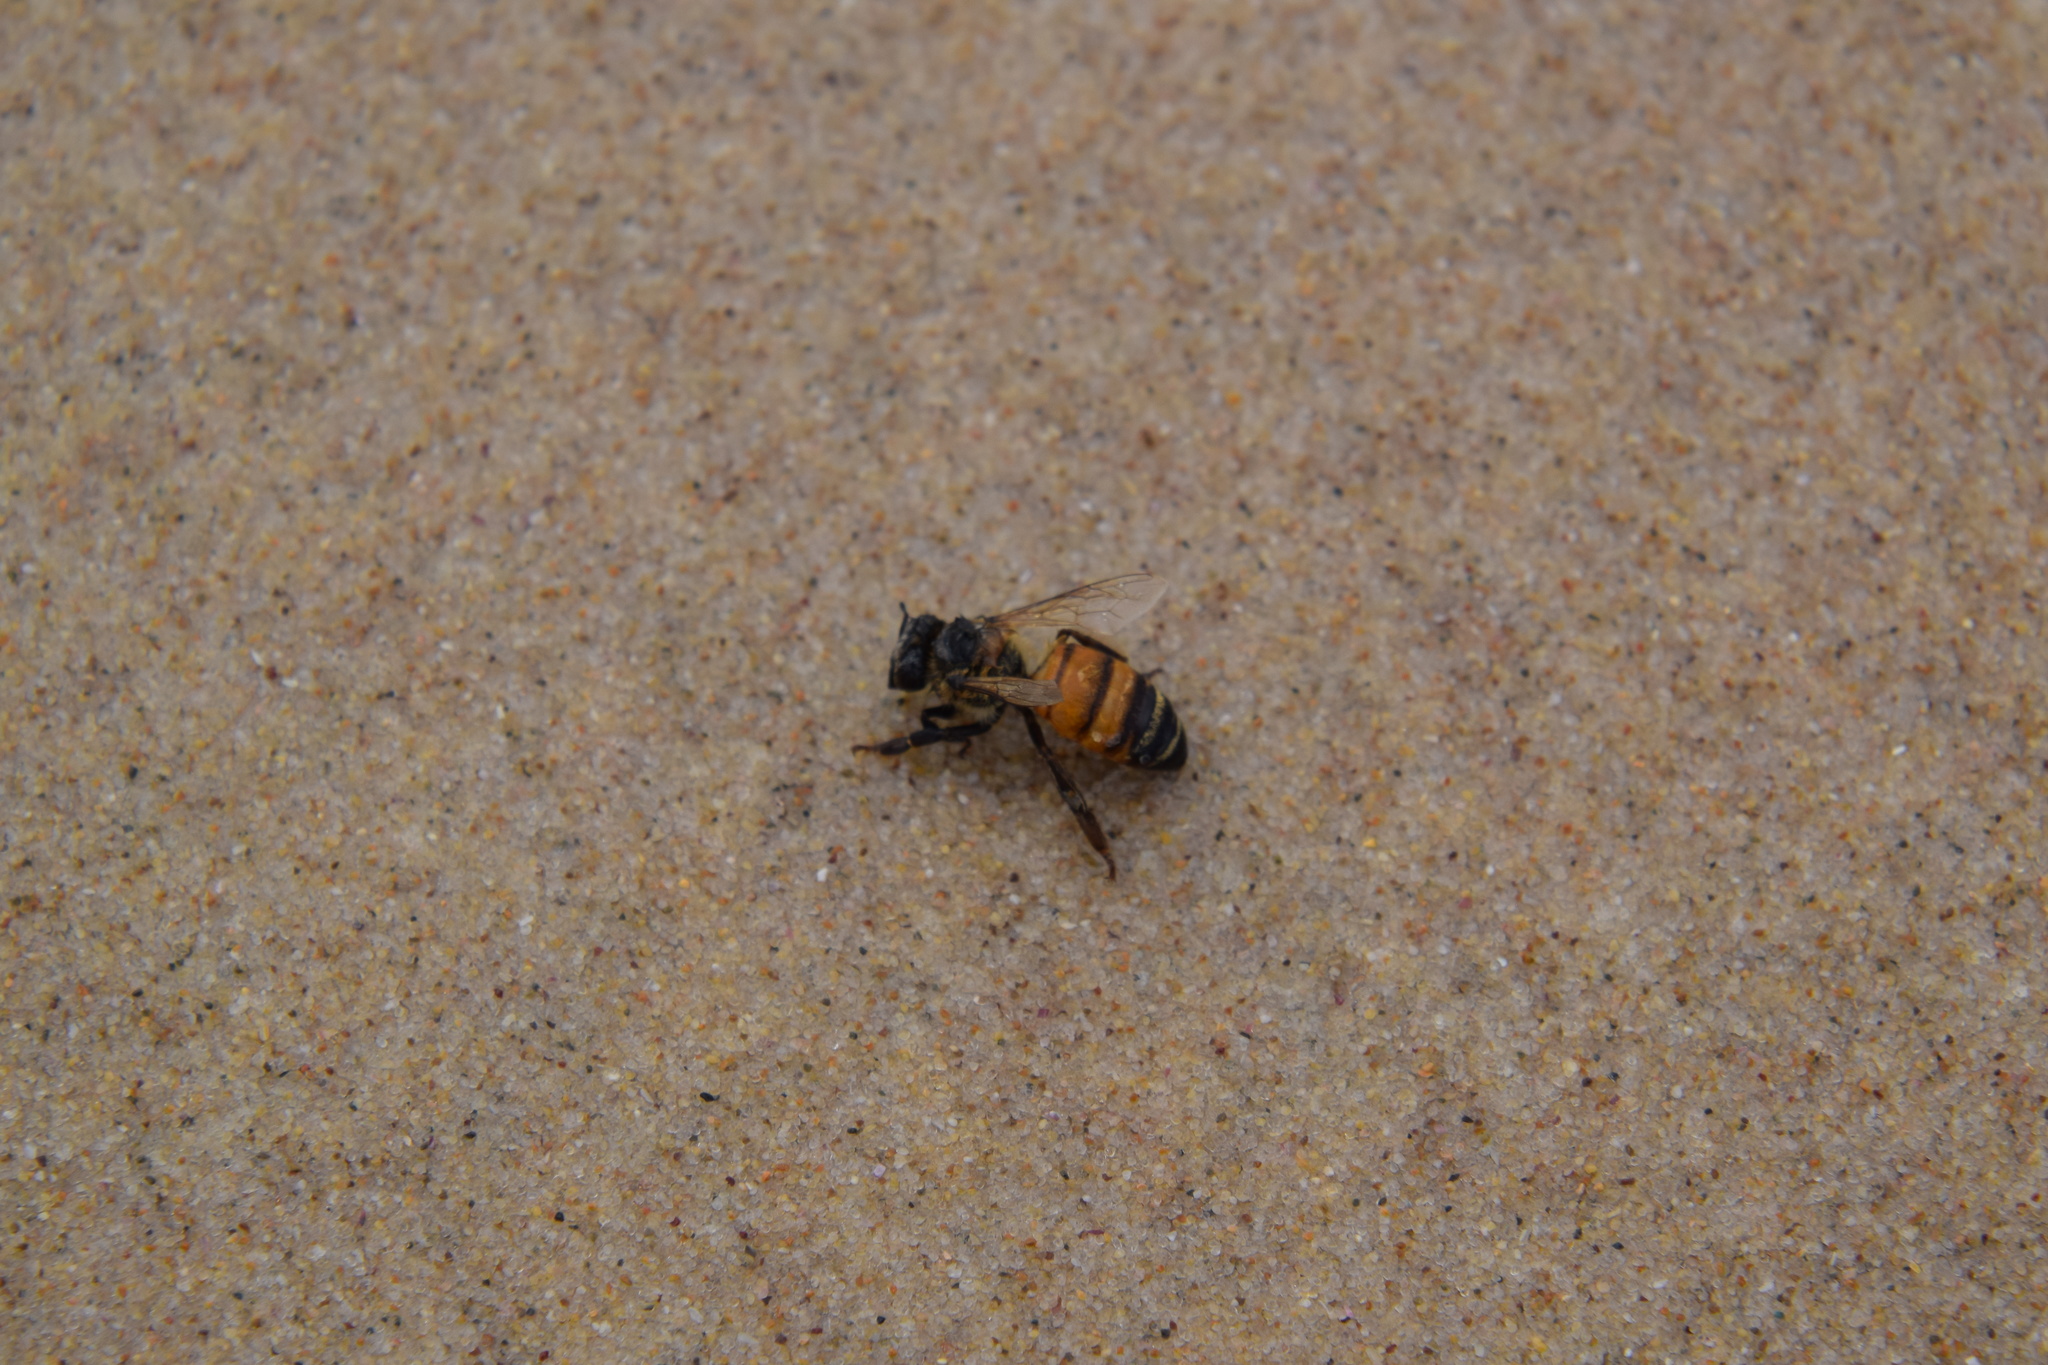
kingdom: Animalia
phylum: Arthropoda
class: Insecta
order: Hymenoptera
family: Apidae
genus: Apis
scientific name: Apis mellifera
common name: Honey bee
